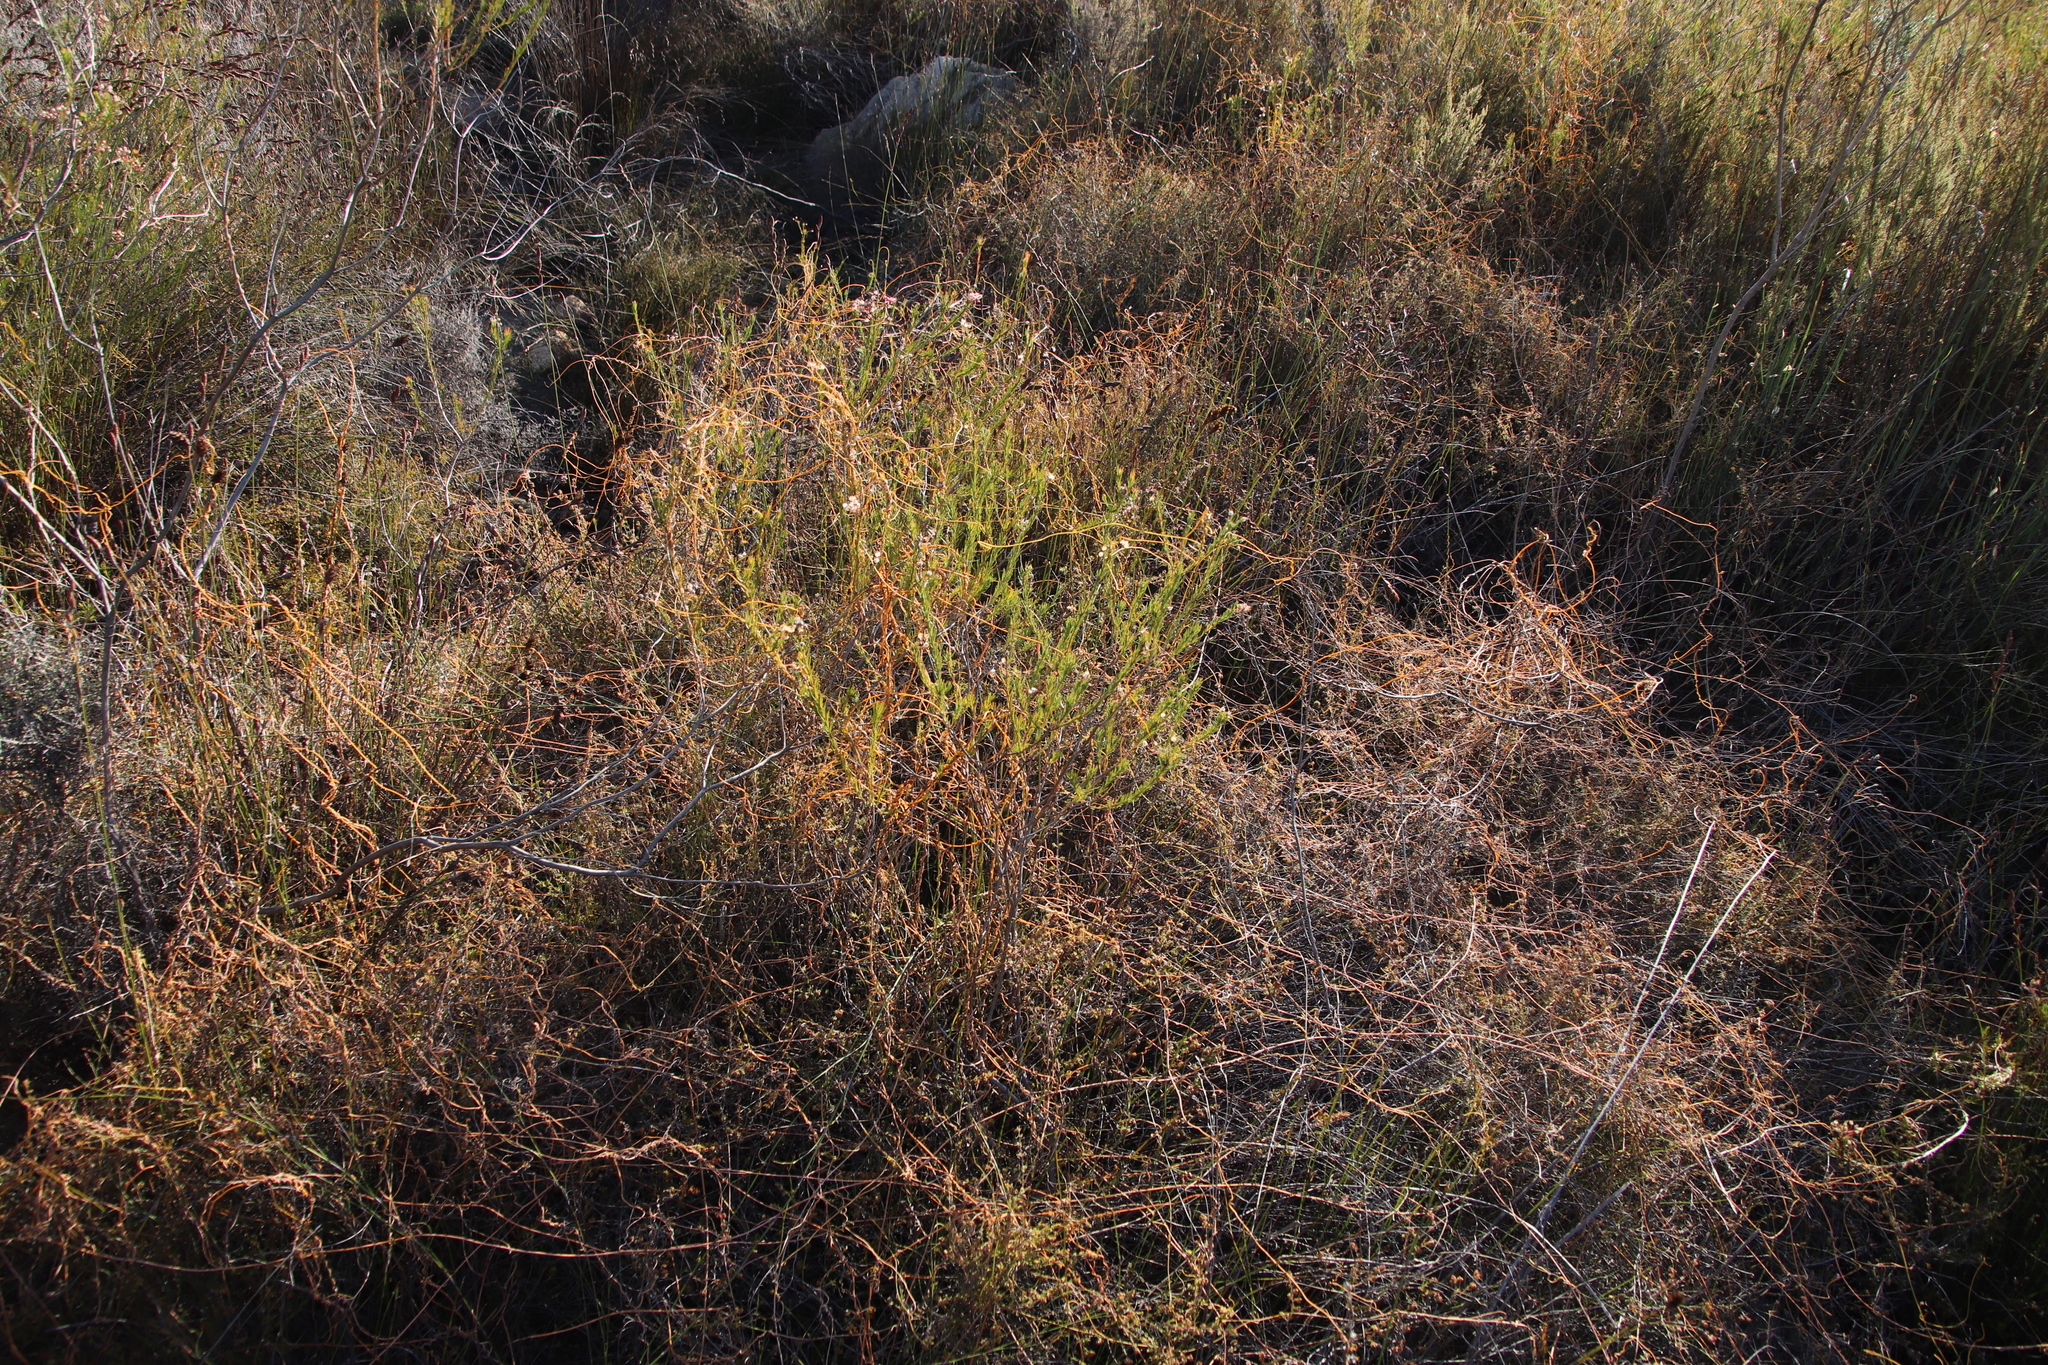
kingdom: Plantae
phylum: Tracheophyta
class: Magnoliopsida
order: Laurales
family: Lauraceae
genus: Cassytha
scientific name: Cassytha ciliolata
